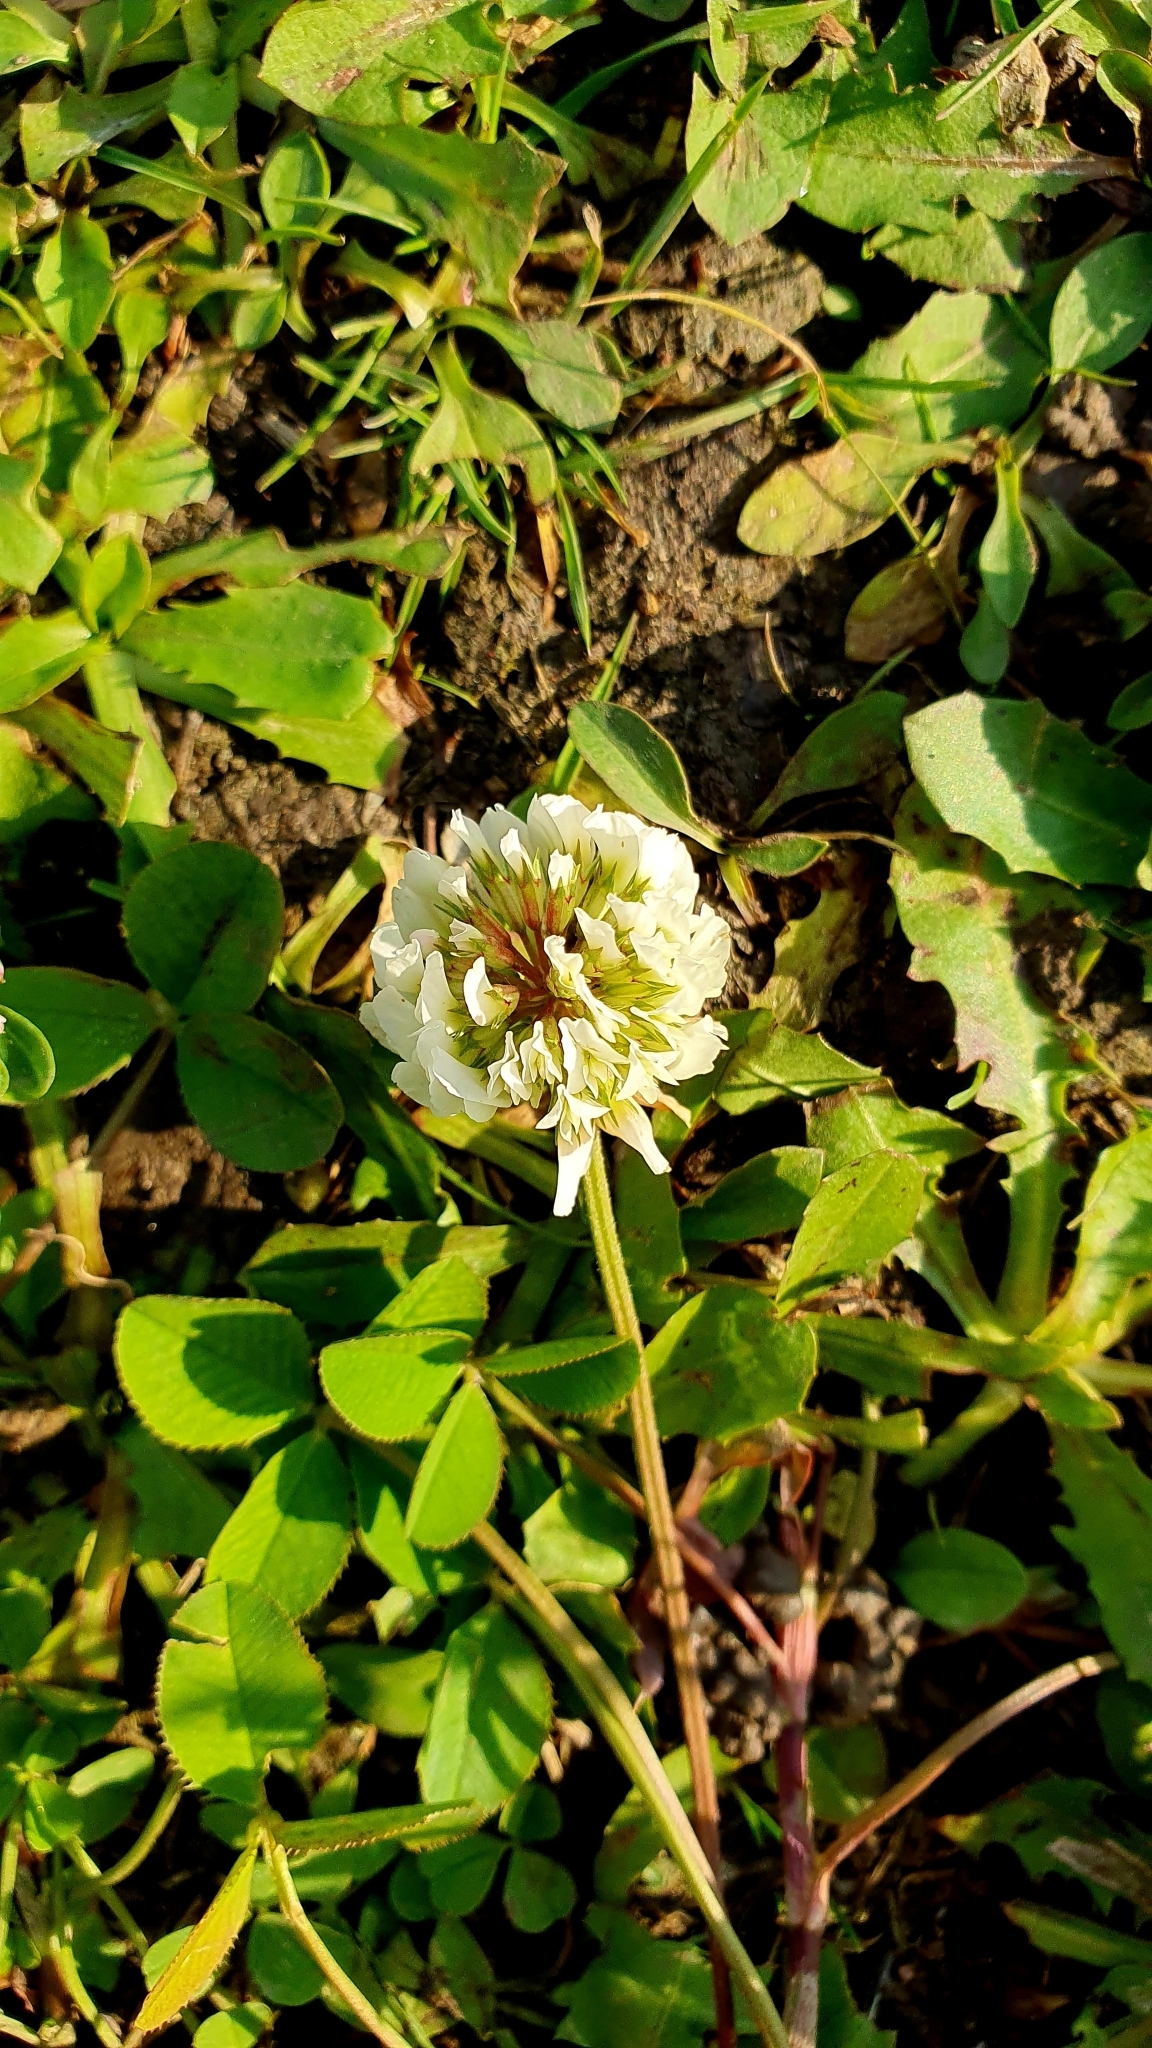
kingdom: Plantae
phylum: Tracheophyta
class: Magnoliopsida
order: Fabales
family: Fabaceae
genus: Trifolium
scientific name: Trifolium repens
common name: White clover
